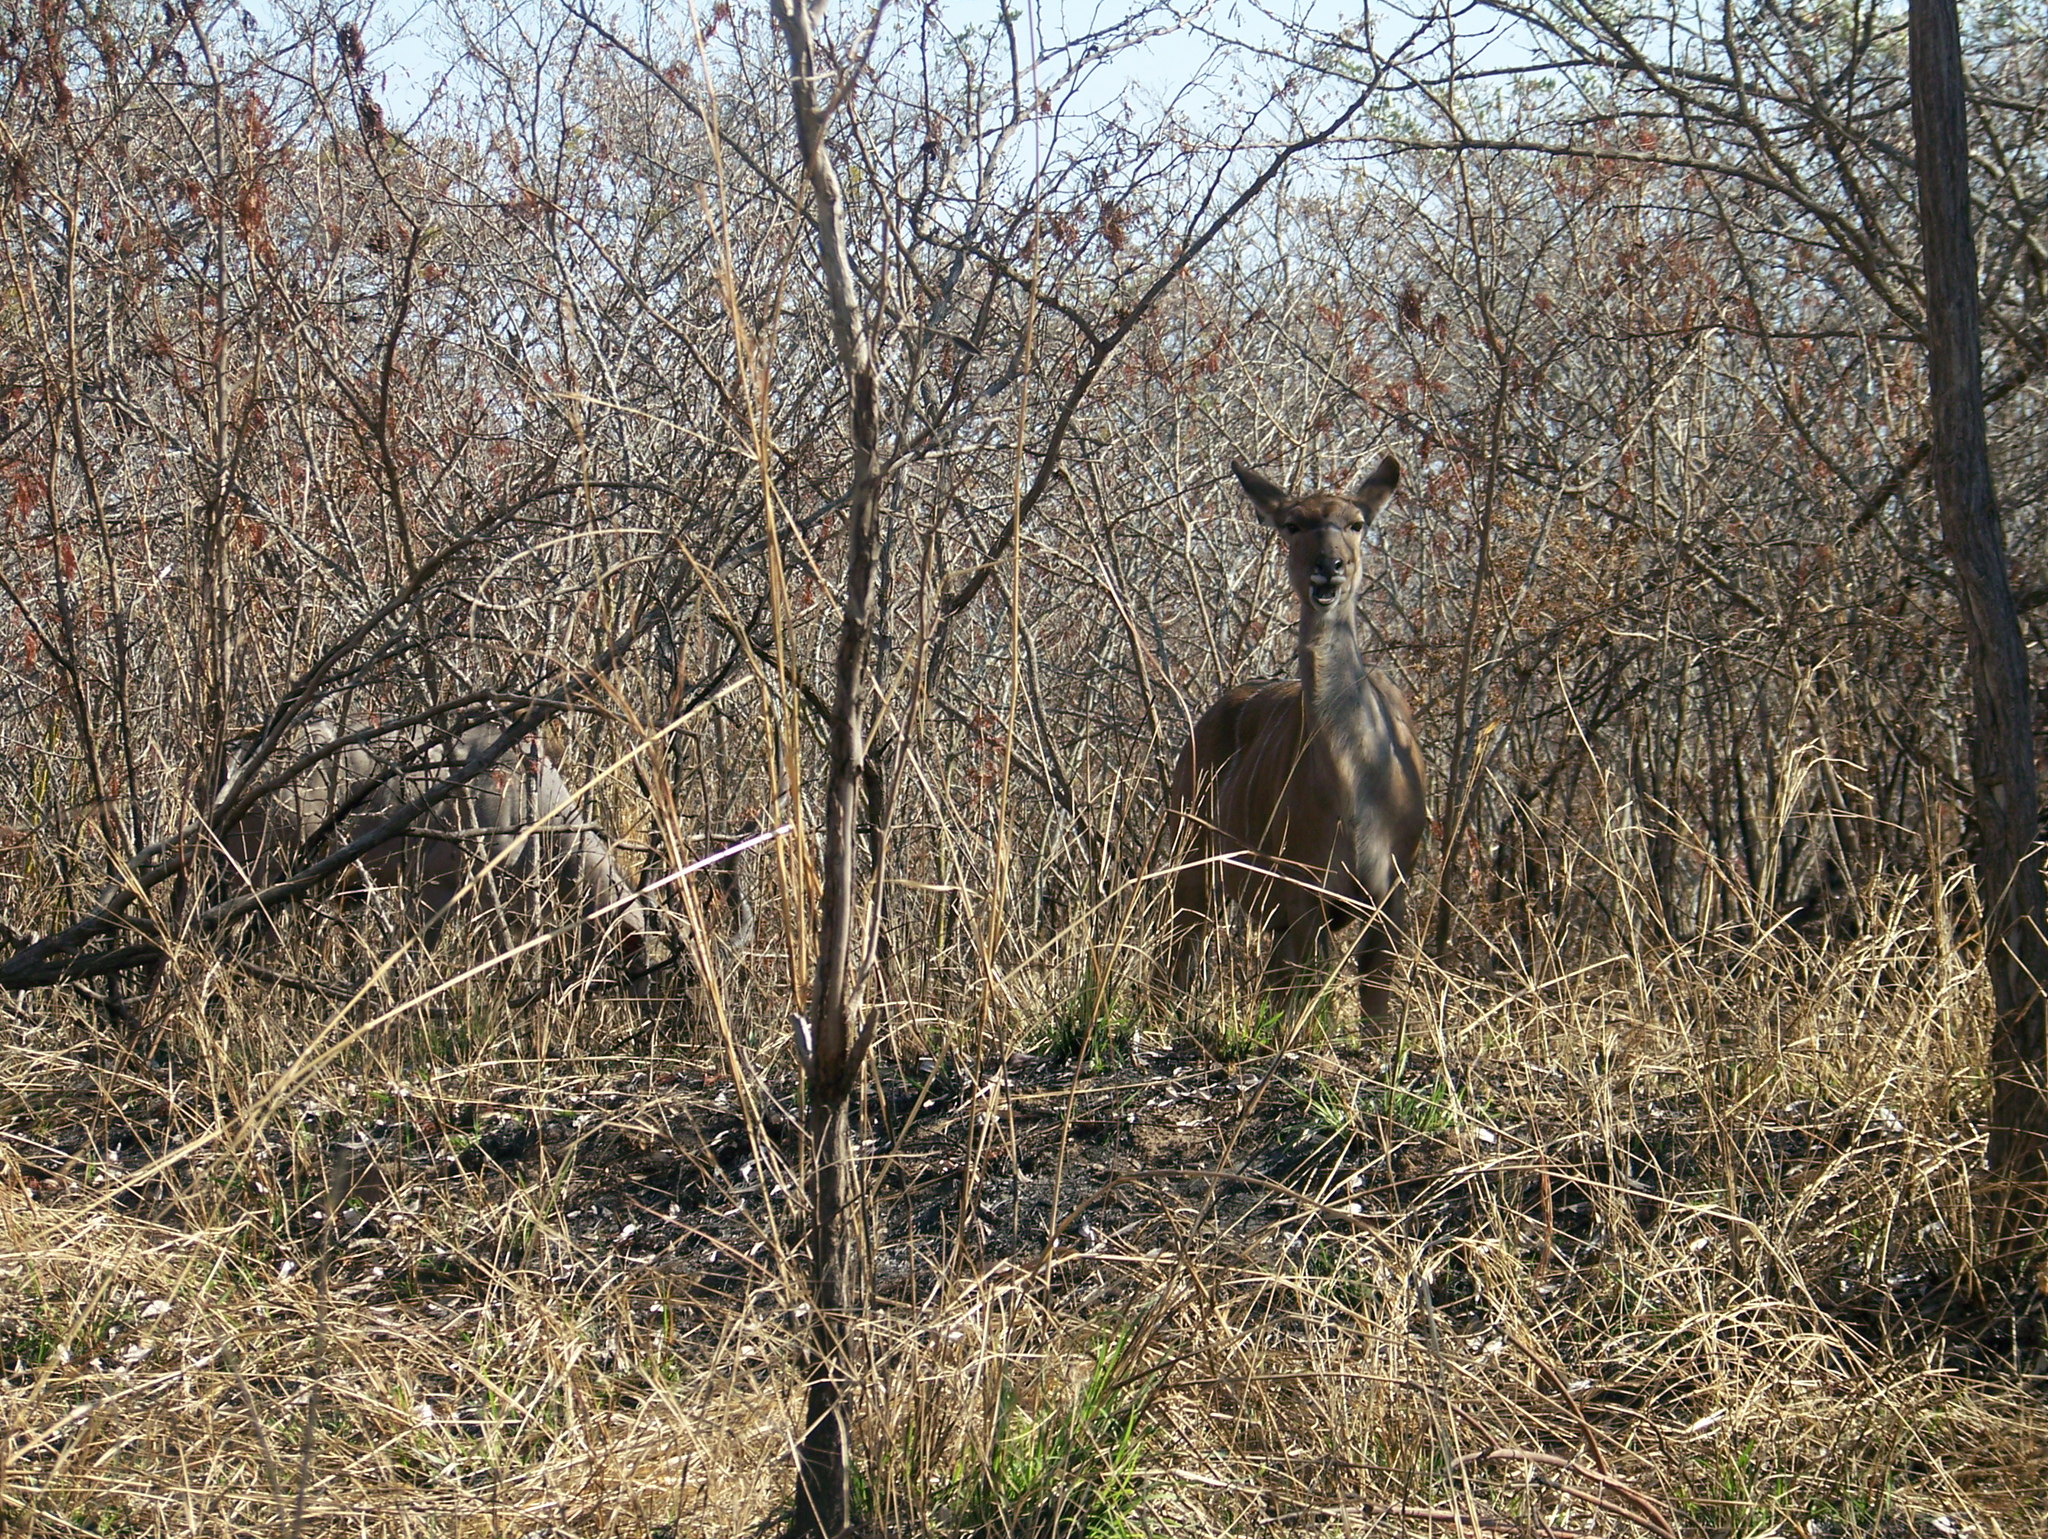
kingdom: Animalia
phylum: Chordata
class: Mammalia
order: Artiodactyla
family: Bovidae
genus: Tragelaphus
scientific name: Tragelaphus strepsiceros
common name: Greater kudu
